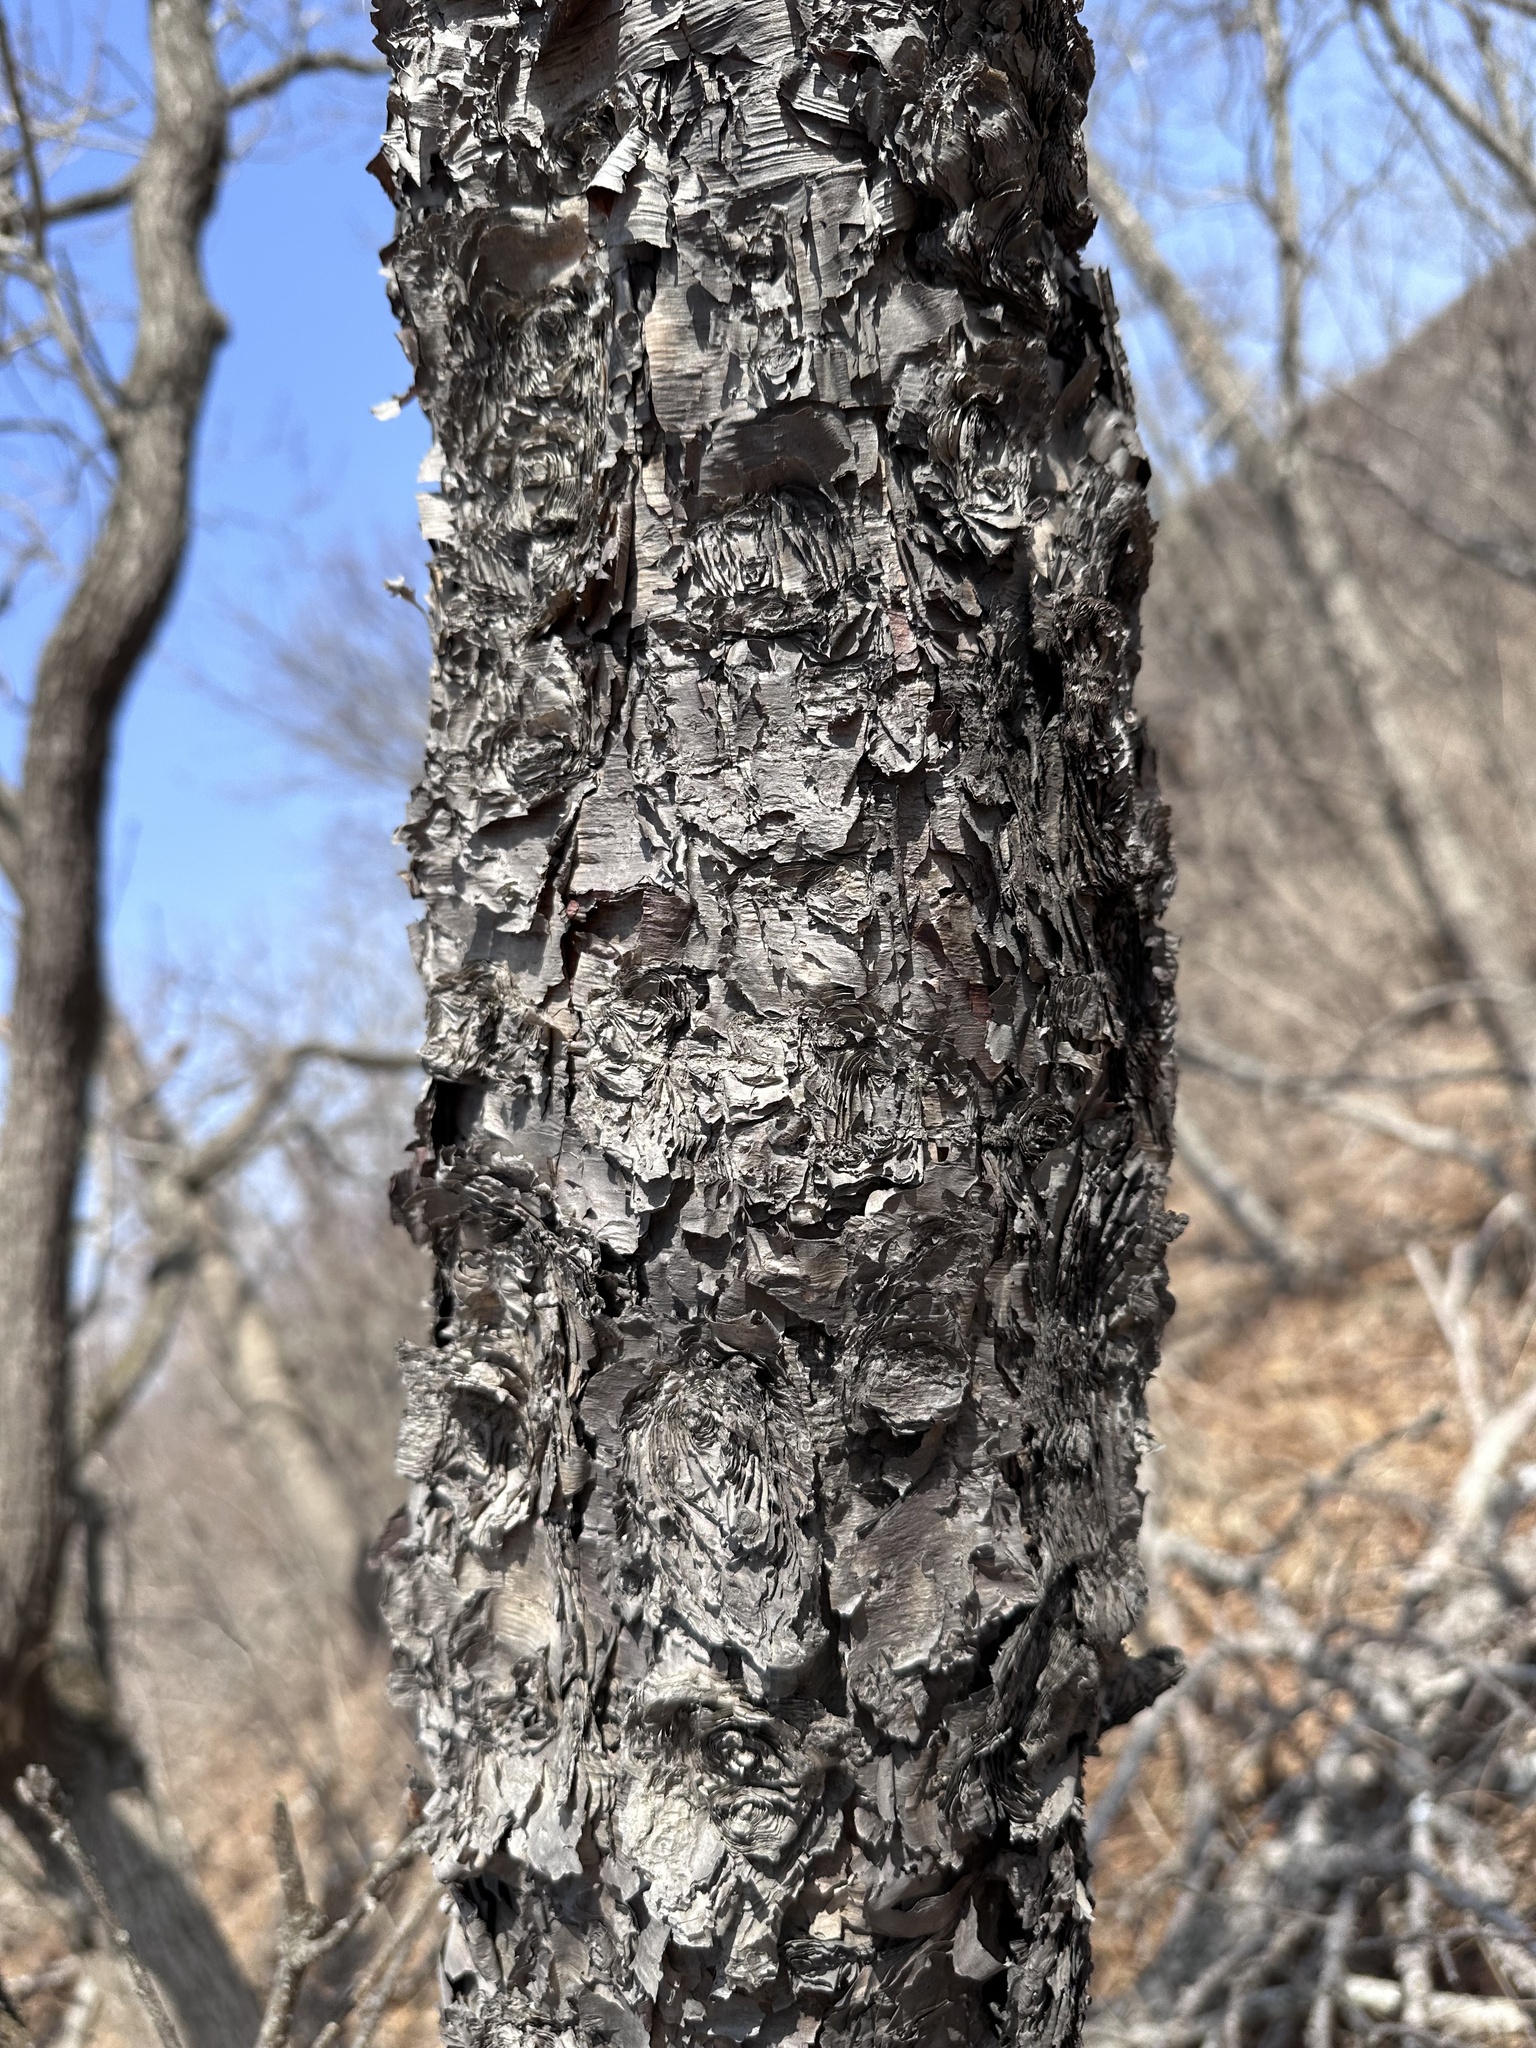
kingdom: Plantae
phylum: Tracheophyta
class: Magnoliopsida
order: Fagales
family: Betulaceae
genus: Betula
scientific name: Betula dauurica
